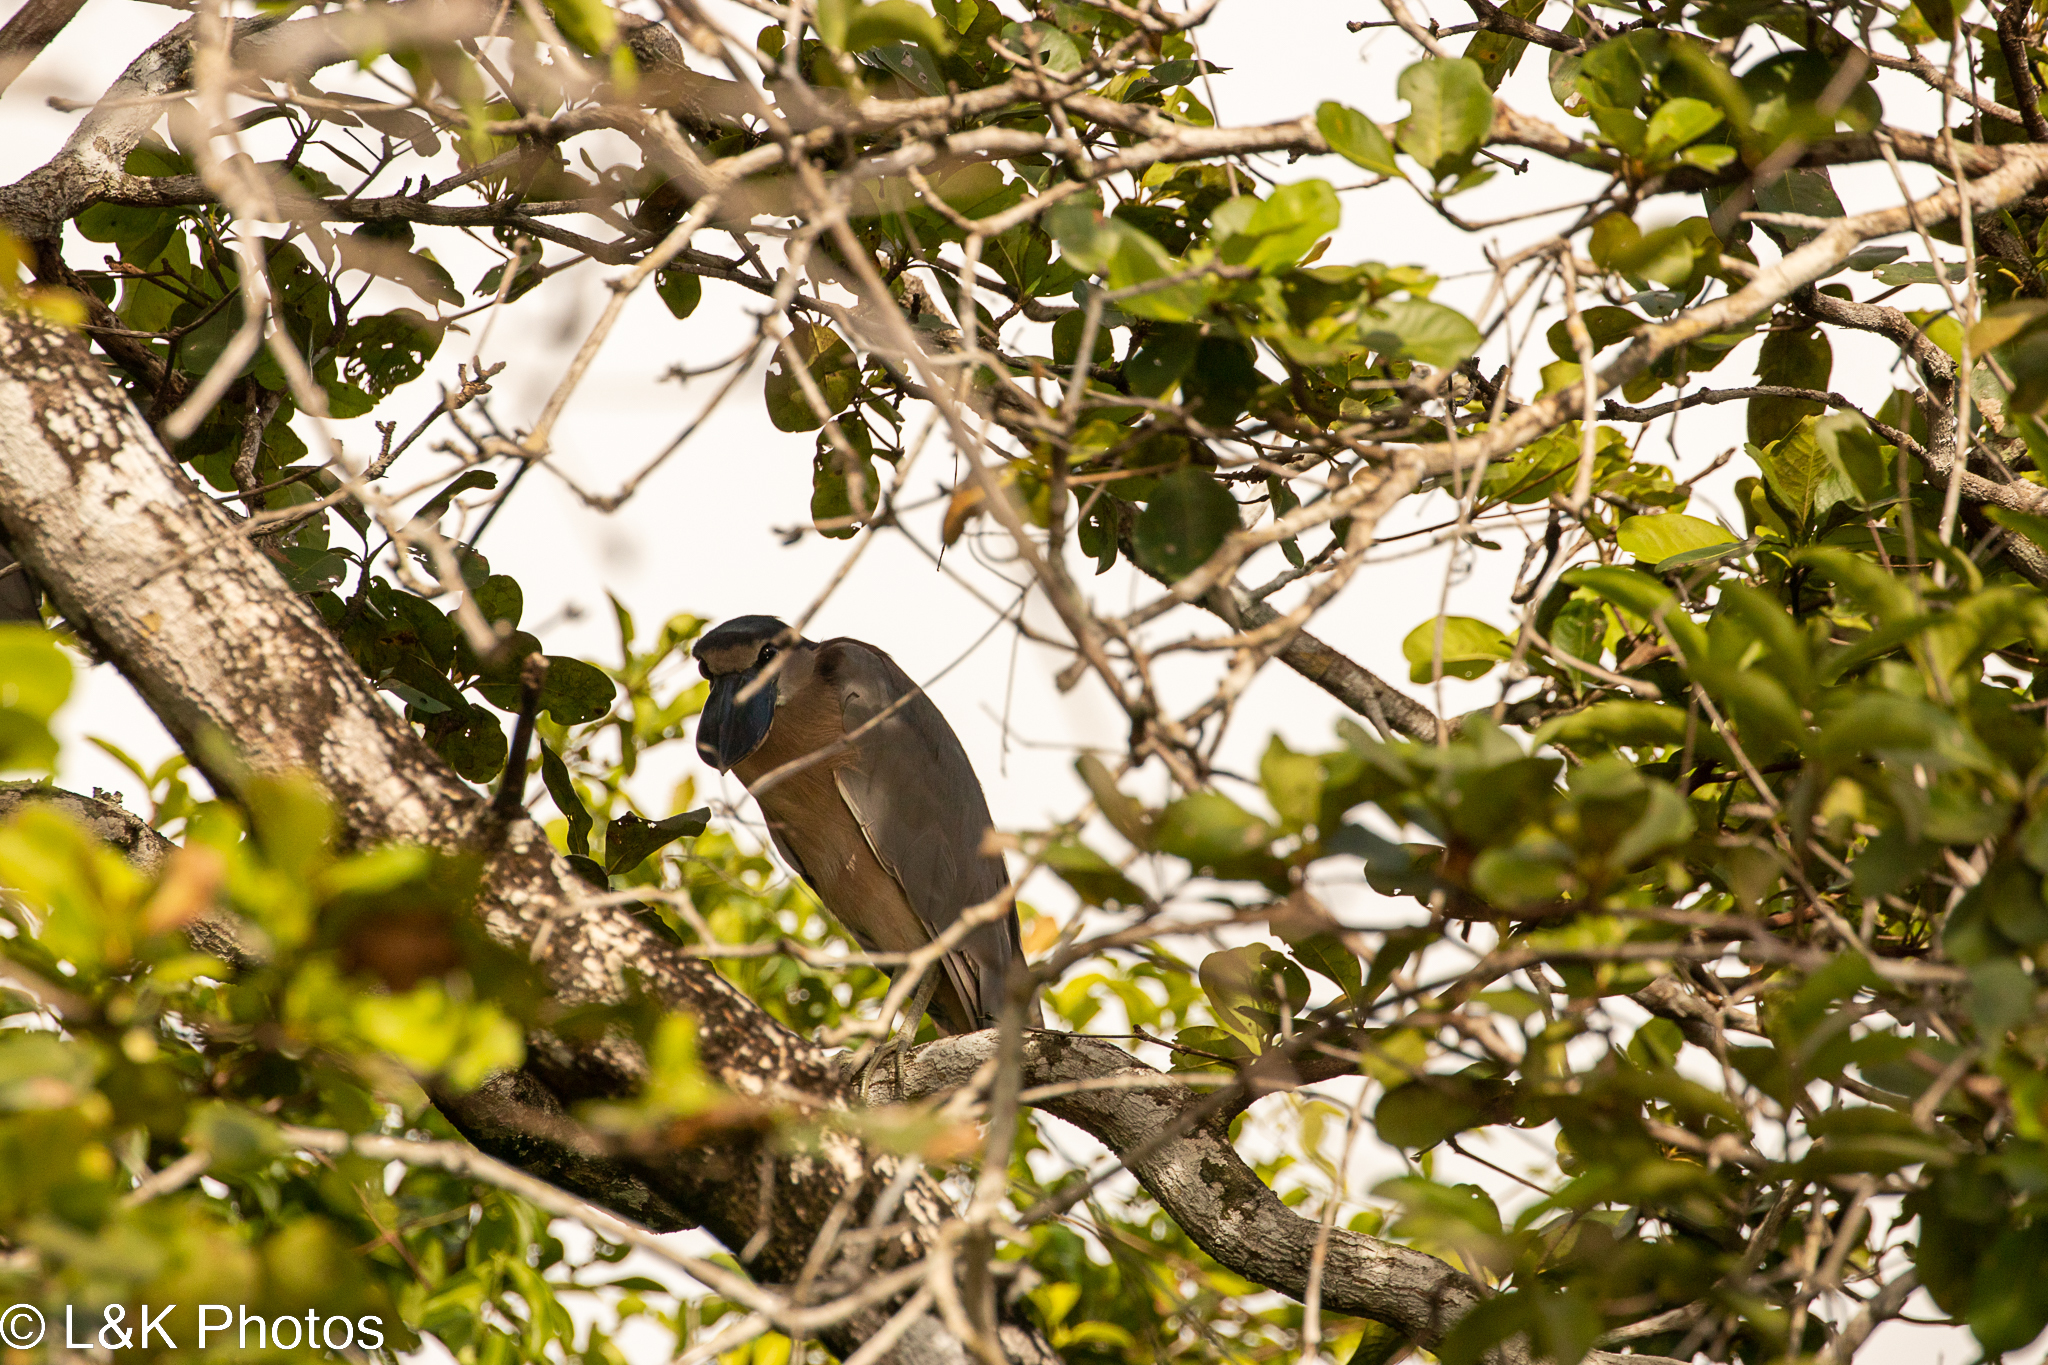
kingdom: Animalia
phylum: Chordata
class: Aves
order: Pelecaniformes
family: Ardeidae
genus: Cochlearius
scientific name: Cochlearius cochlearius
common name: Boat-billed heron
